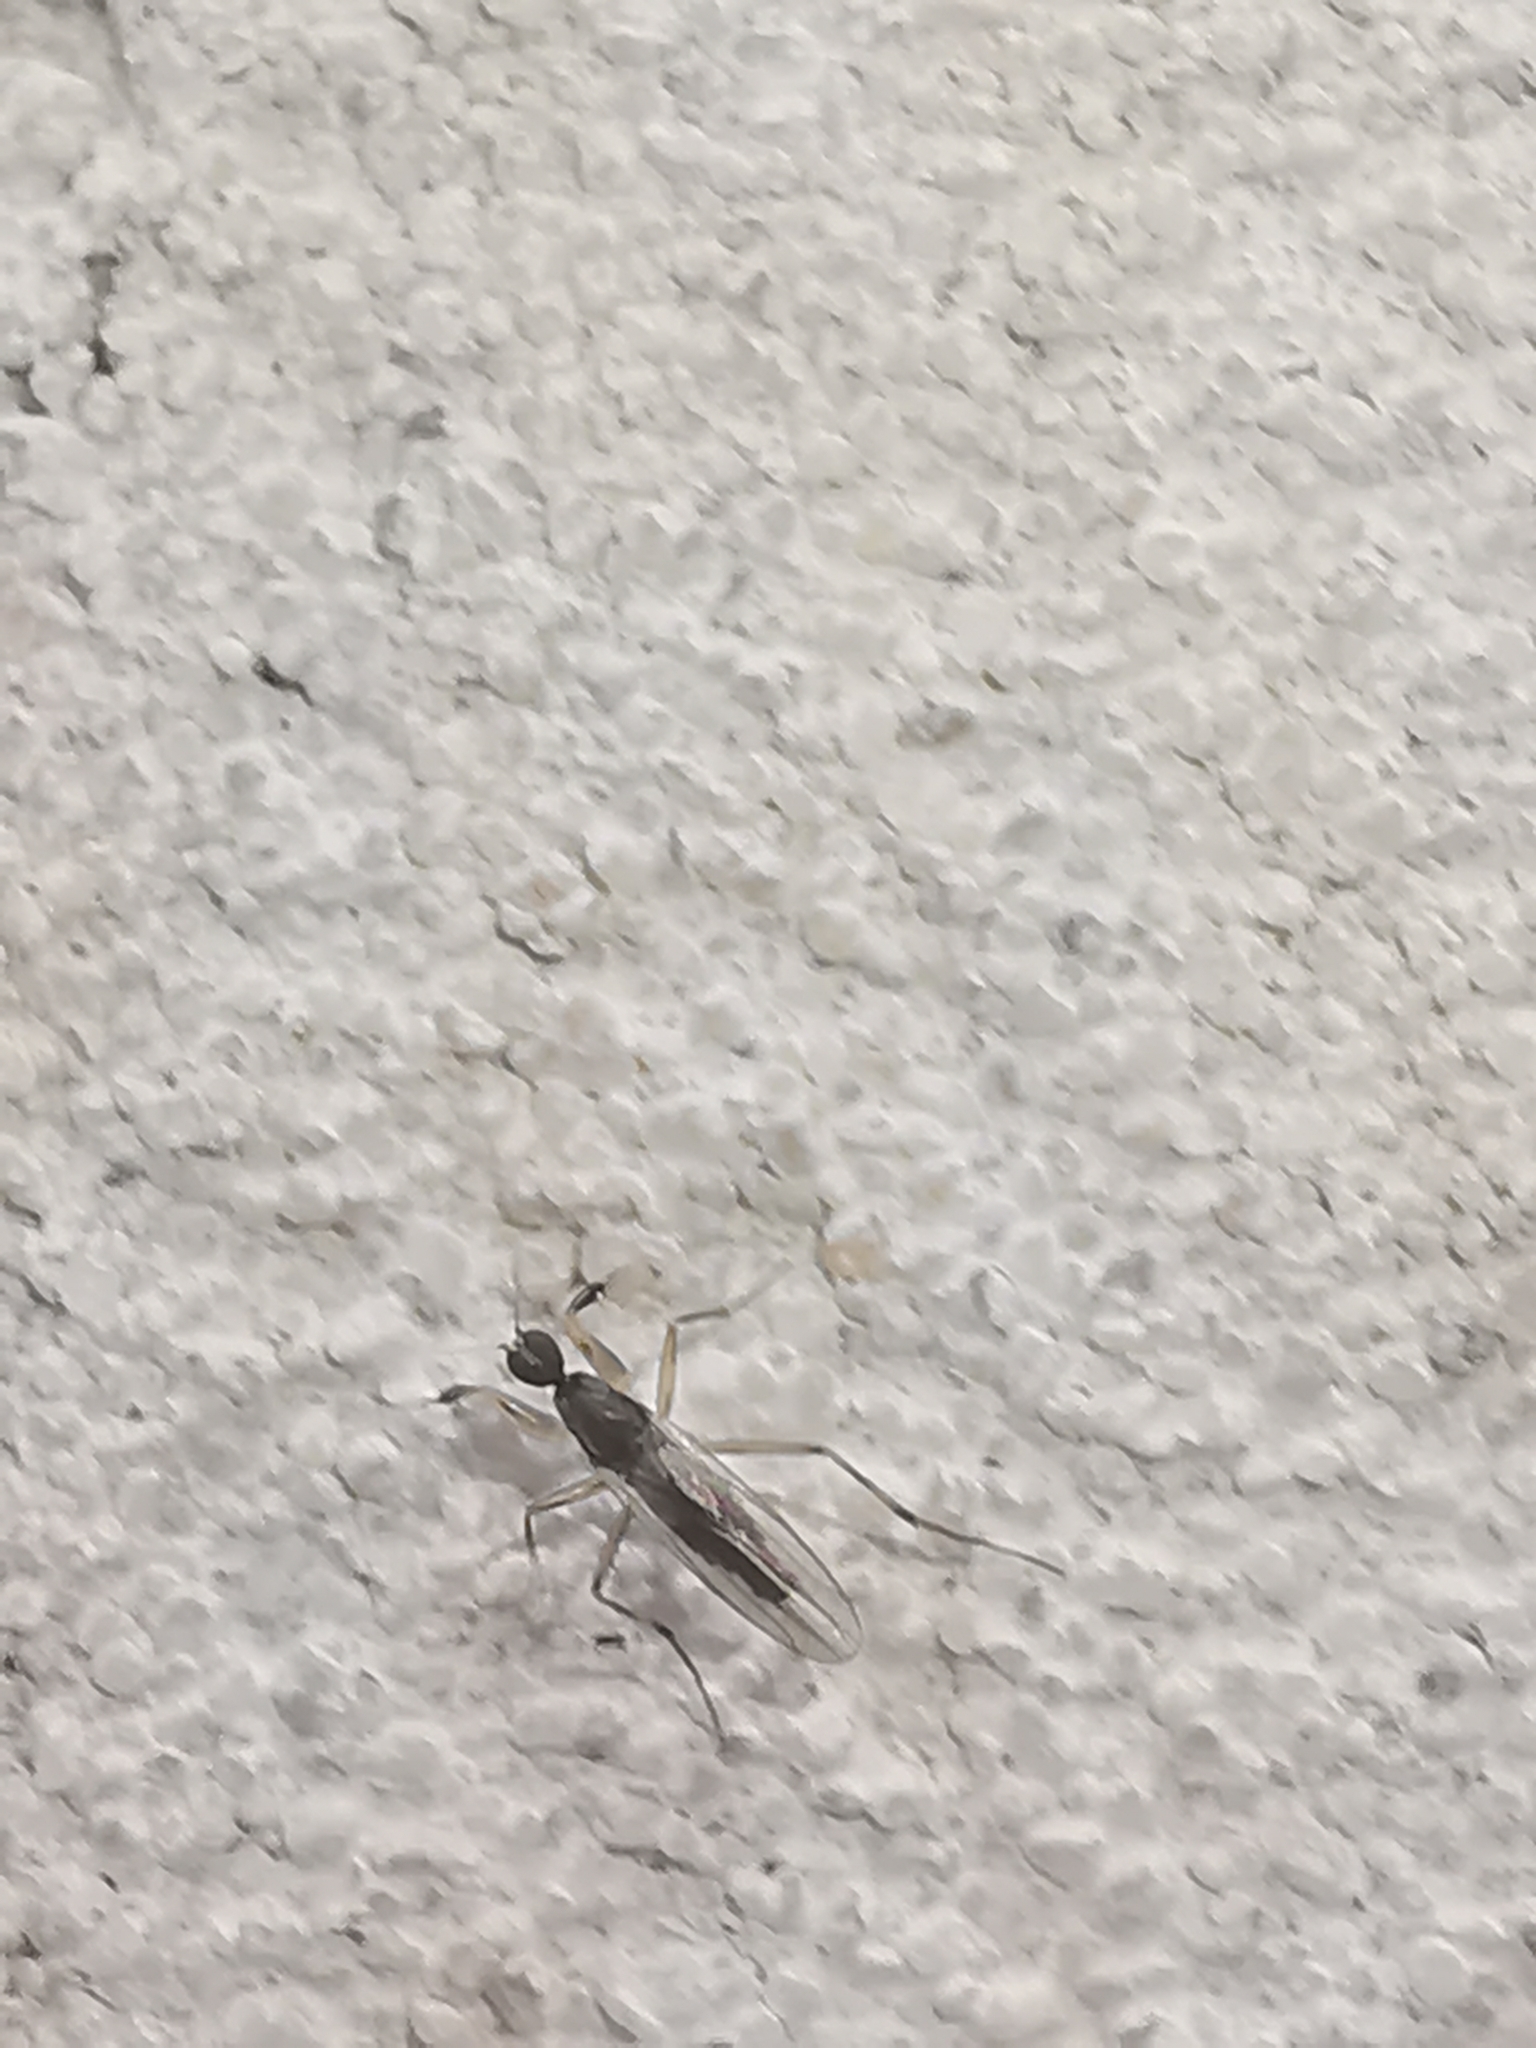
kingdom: Animalia
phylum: Arthropoda
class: Insecta
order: Diptera
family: Hybotidae
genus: Tachypeza
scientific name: Tachypeza nubila
